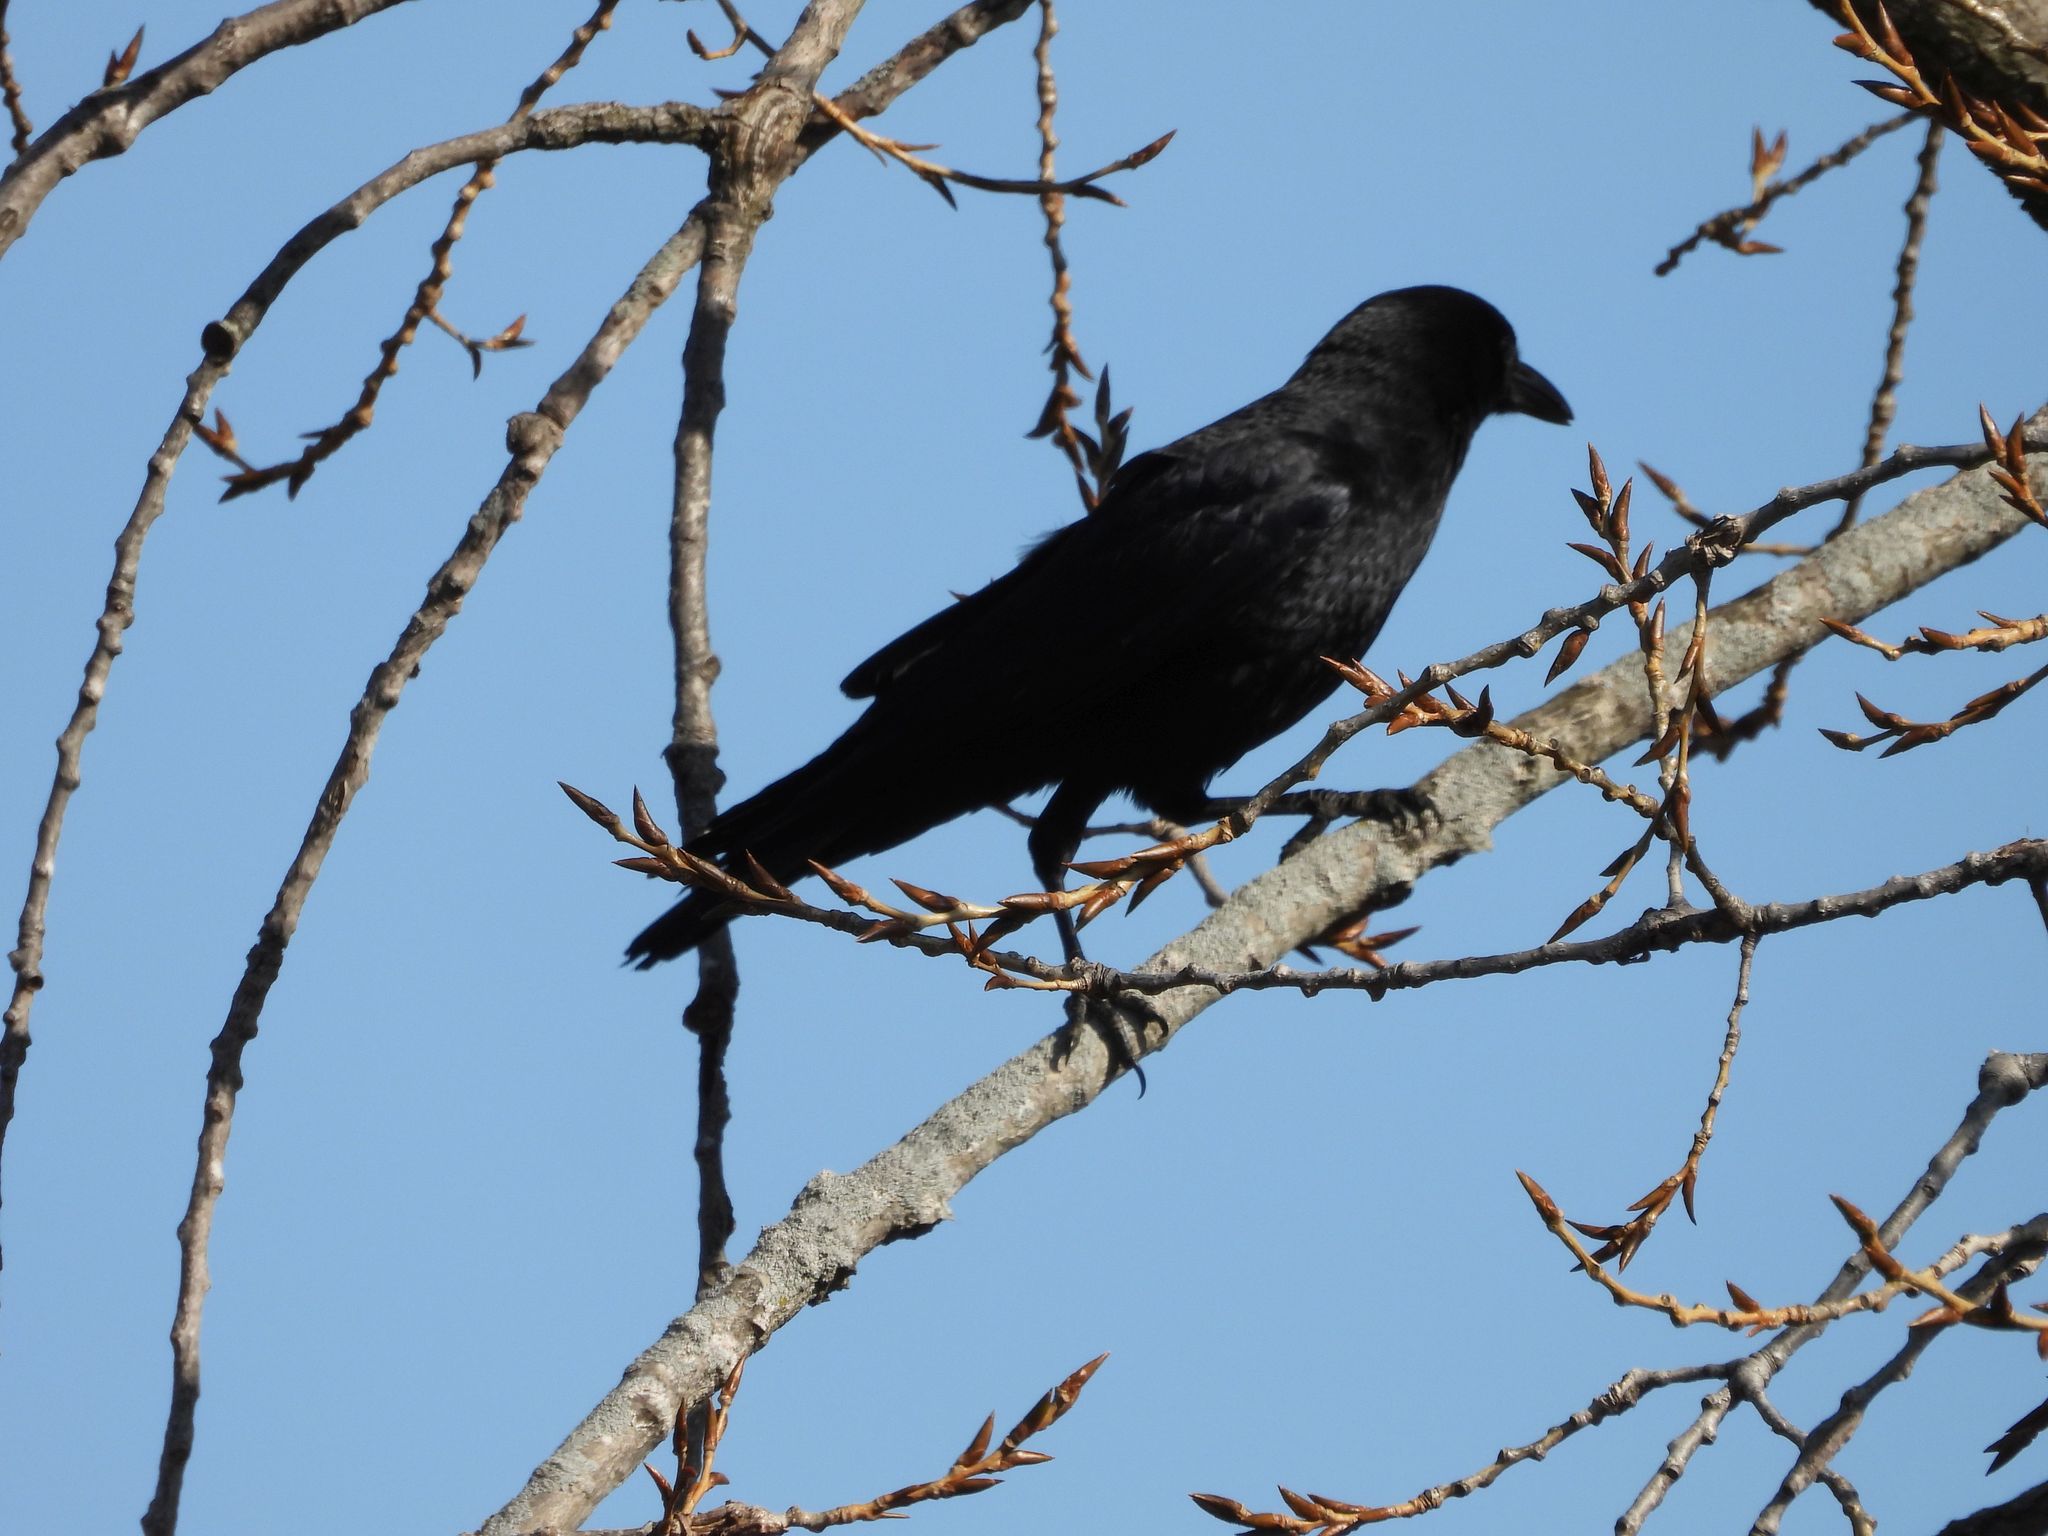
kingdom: Animalia
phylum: Chordata
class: Aves
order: Passeriformes
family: Corvidae
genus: Corvus
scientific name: Corvus brachyrhynchos
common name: American crow
